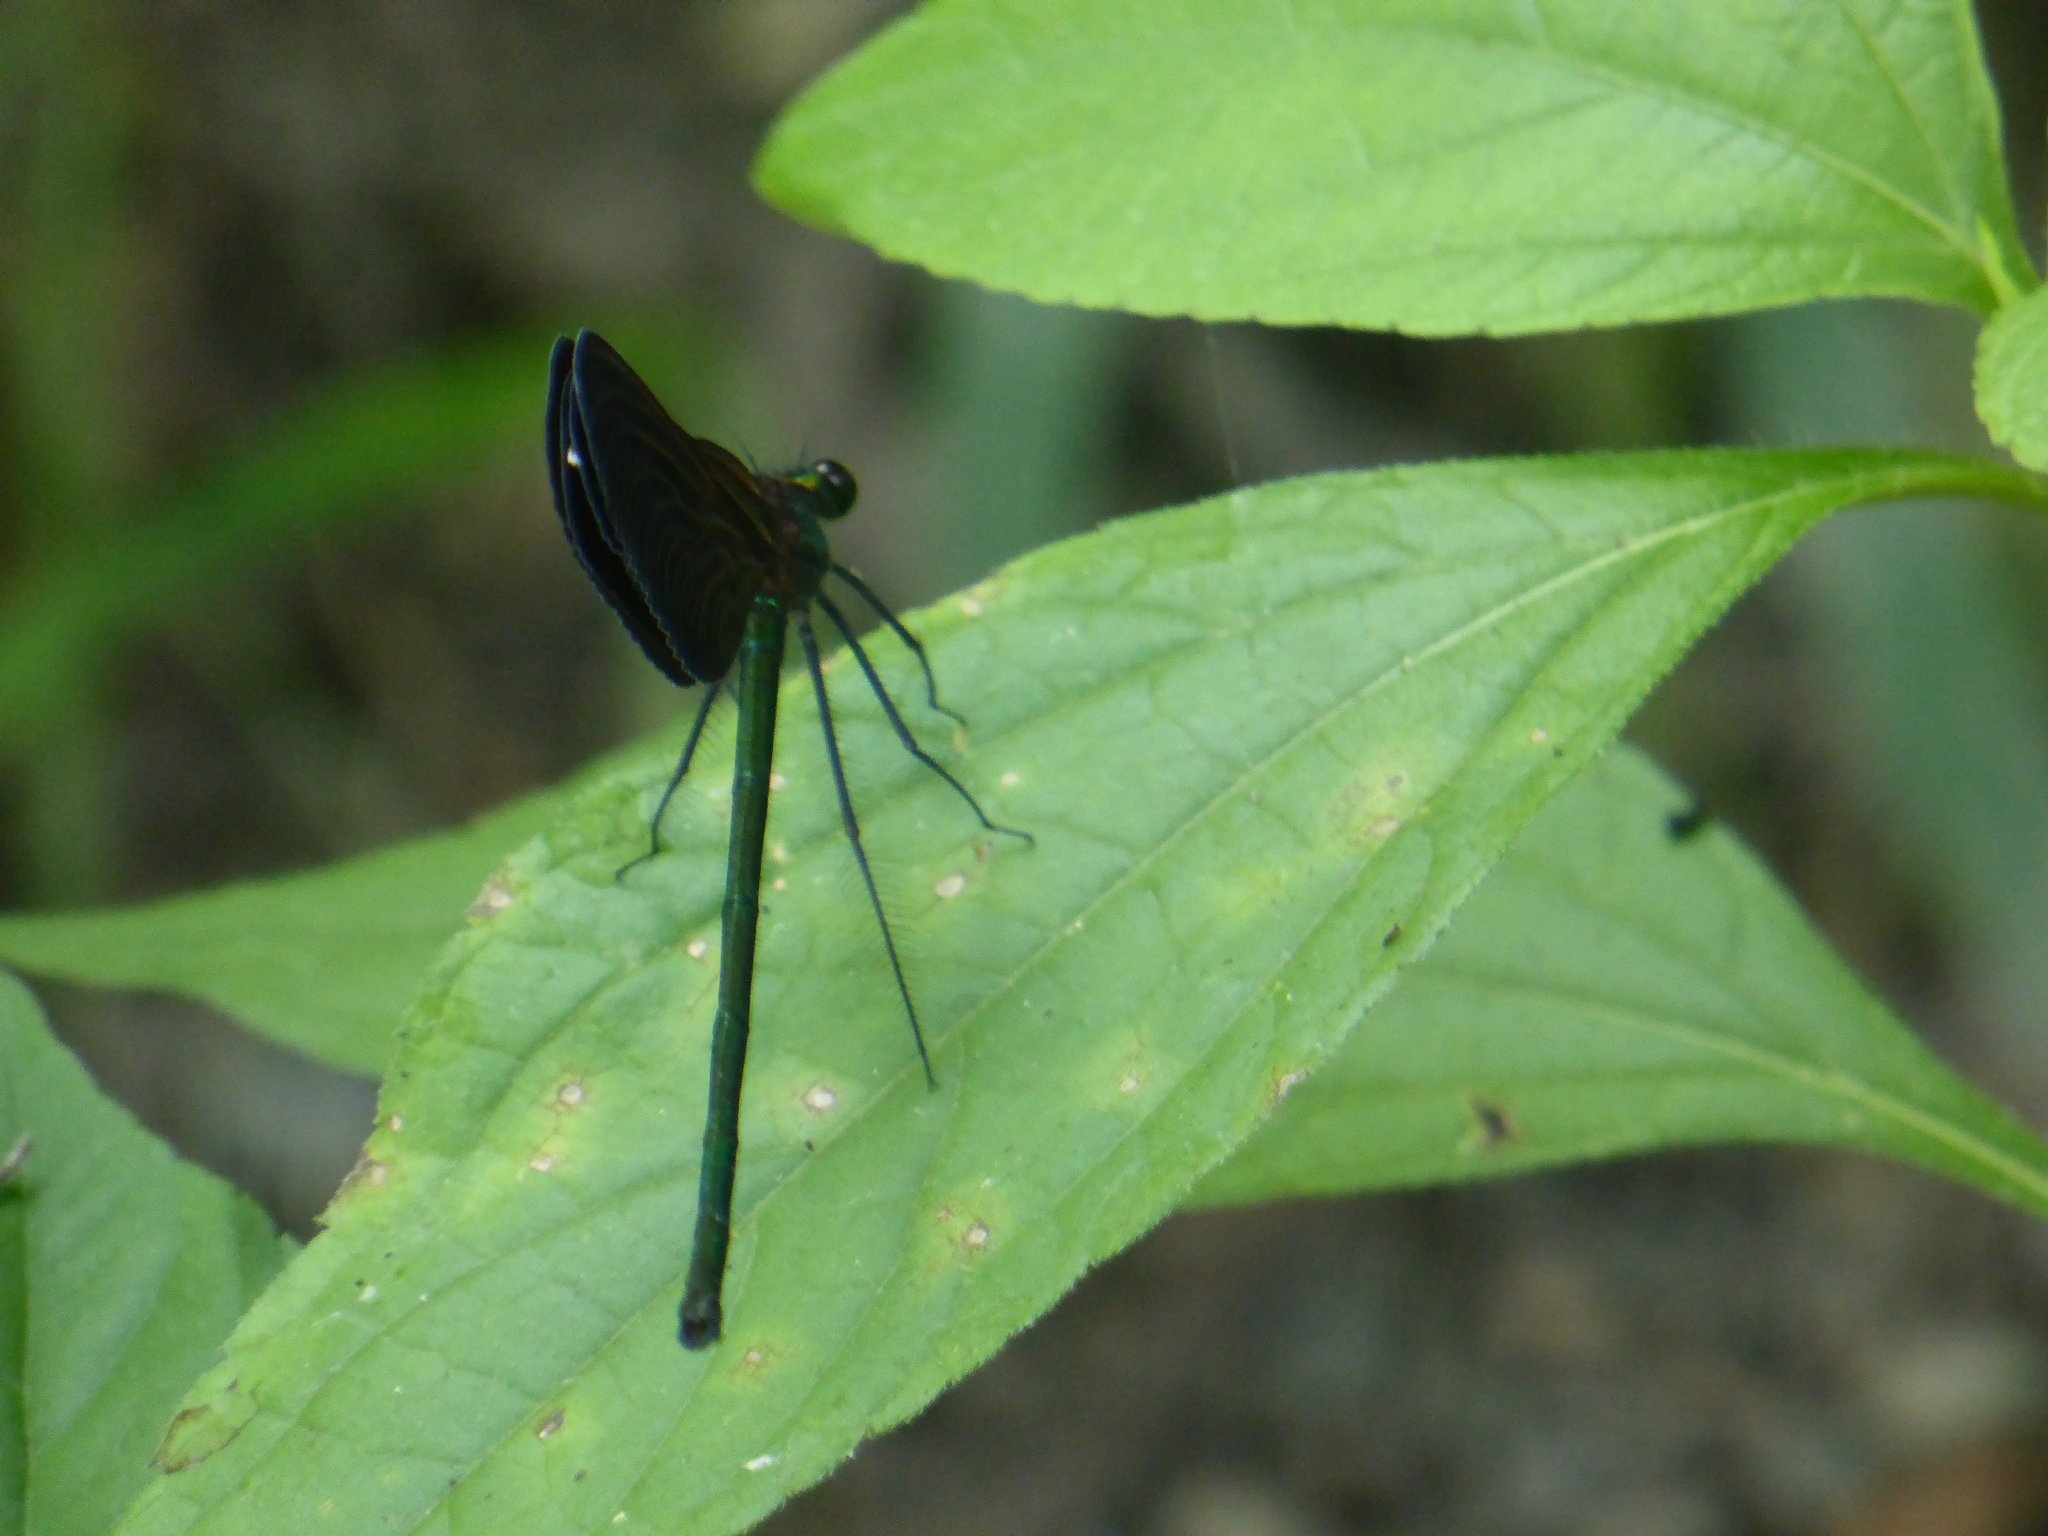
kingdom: Animalia
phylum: Arthropoda
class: Insecta
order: Odonata
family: Calopterygidae
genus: Calopteryx
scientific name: Calopteryx japonica
